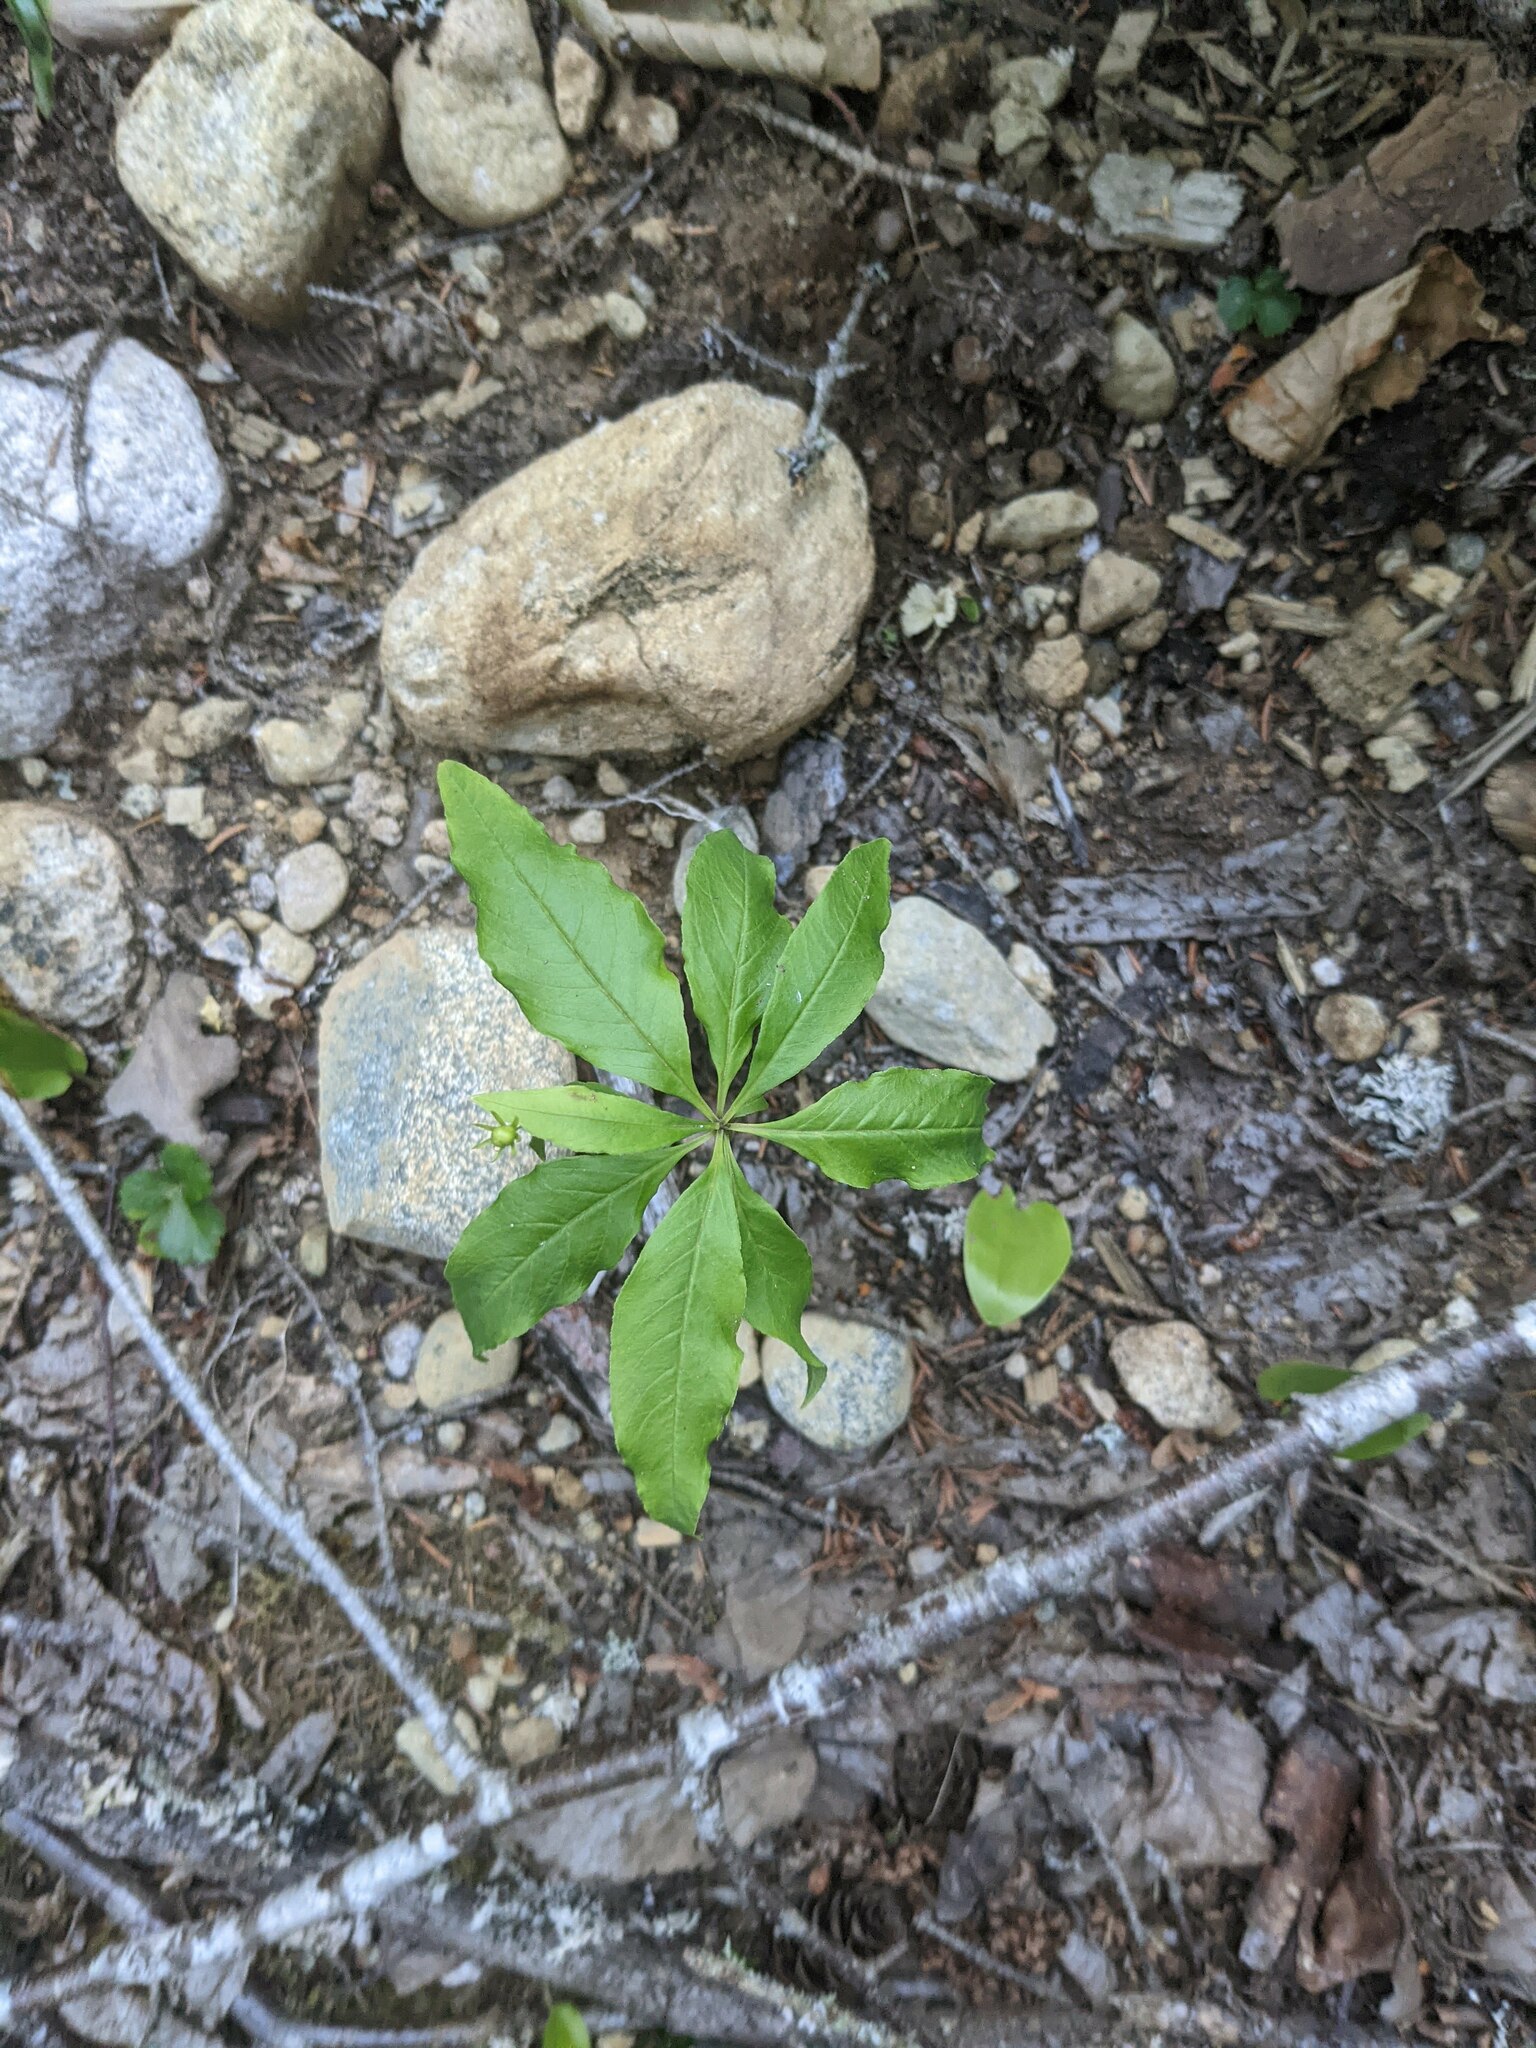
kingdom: Plantae
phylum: Tracheophyta
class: Magnoliopsida
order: Ericales
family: Primulaceae
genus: Lysimachia
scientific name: Lysimachia borealis
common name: American starflower
